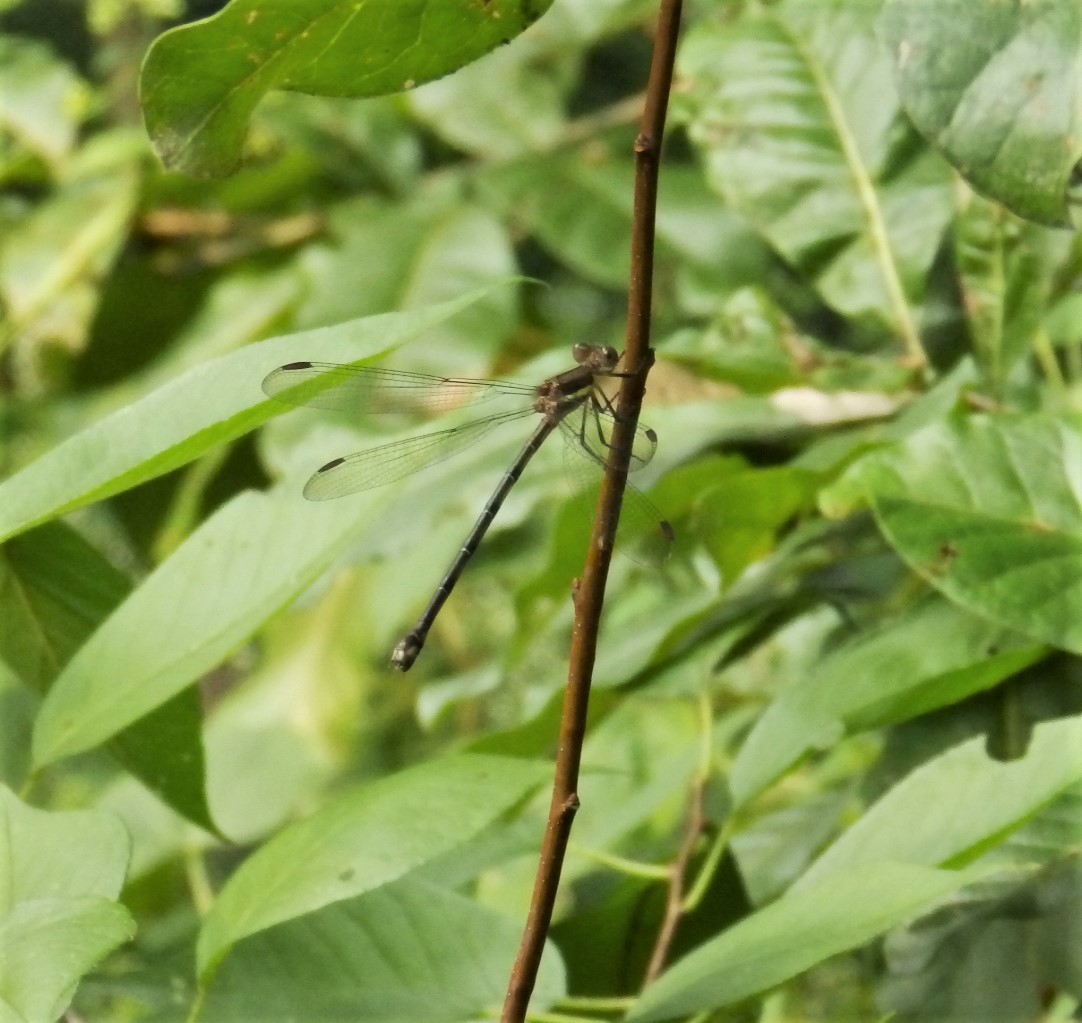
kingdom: Animalia
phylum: Arthropoda
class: Insecta
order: Odonata
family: Lestidae
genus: Archilestes
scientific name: Archilestes grandis
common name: Great spreadwing
